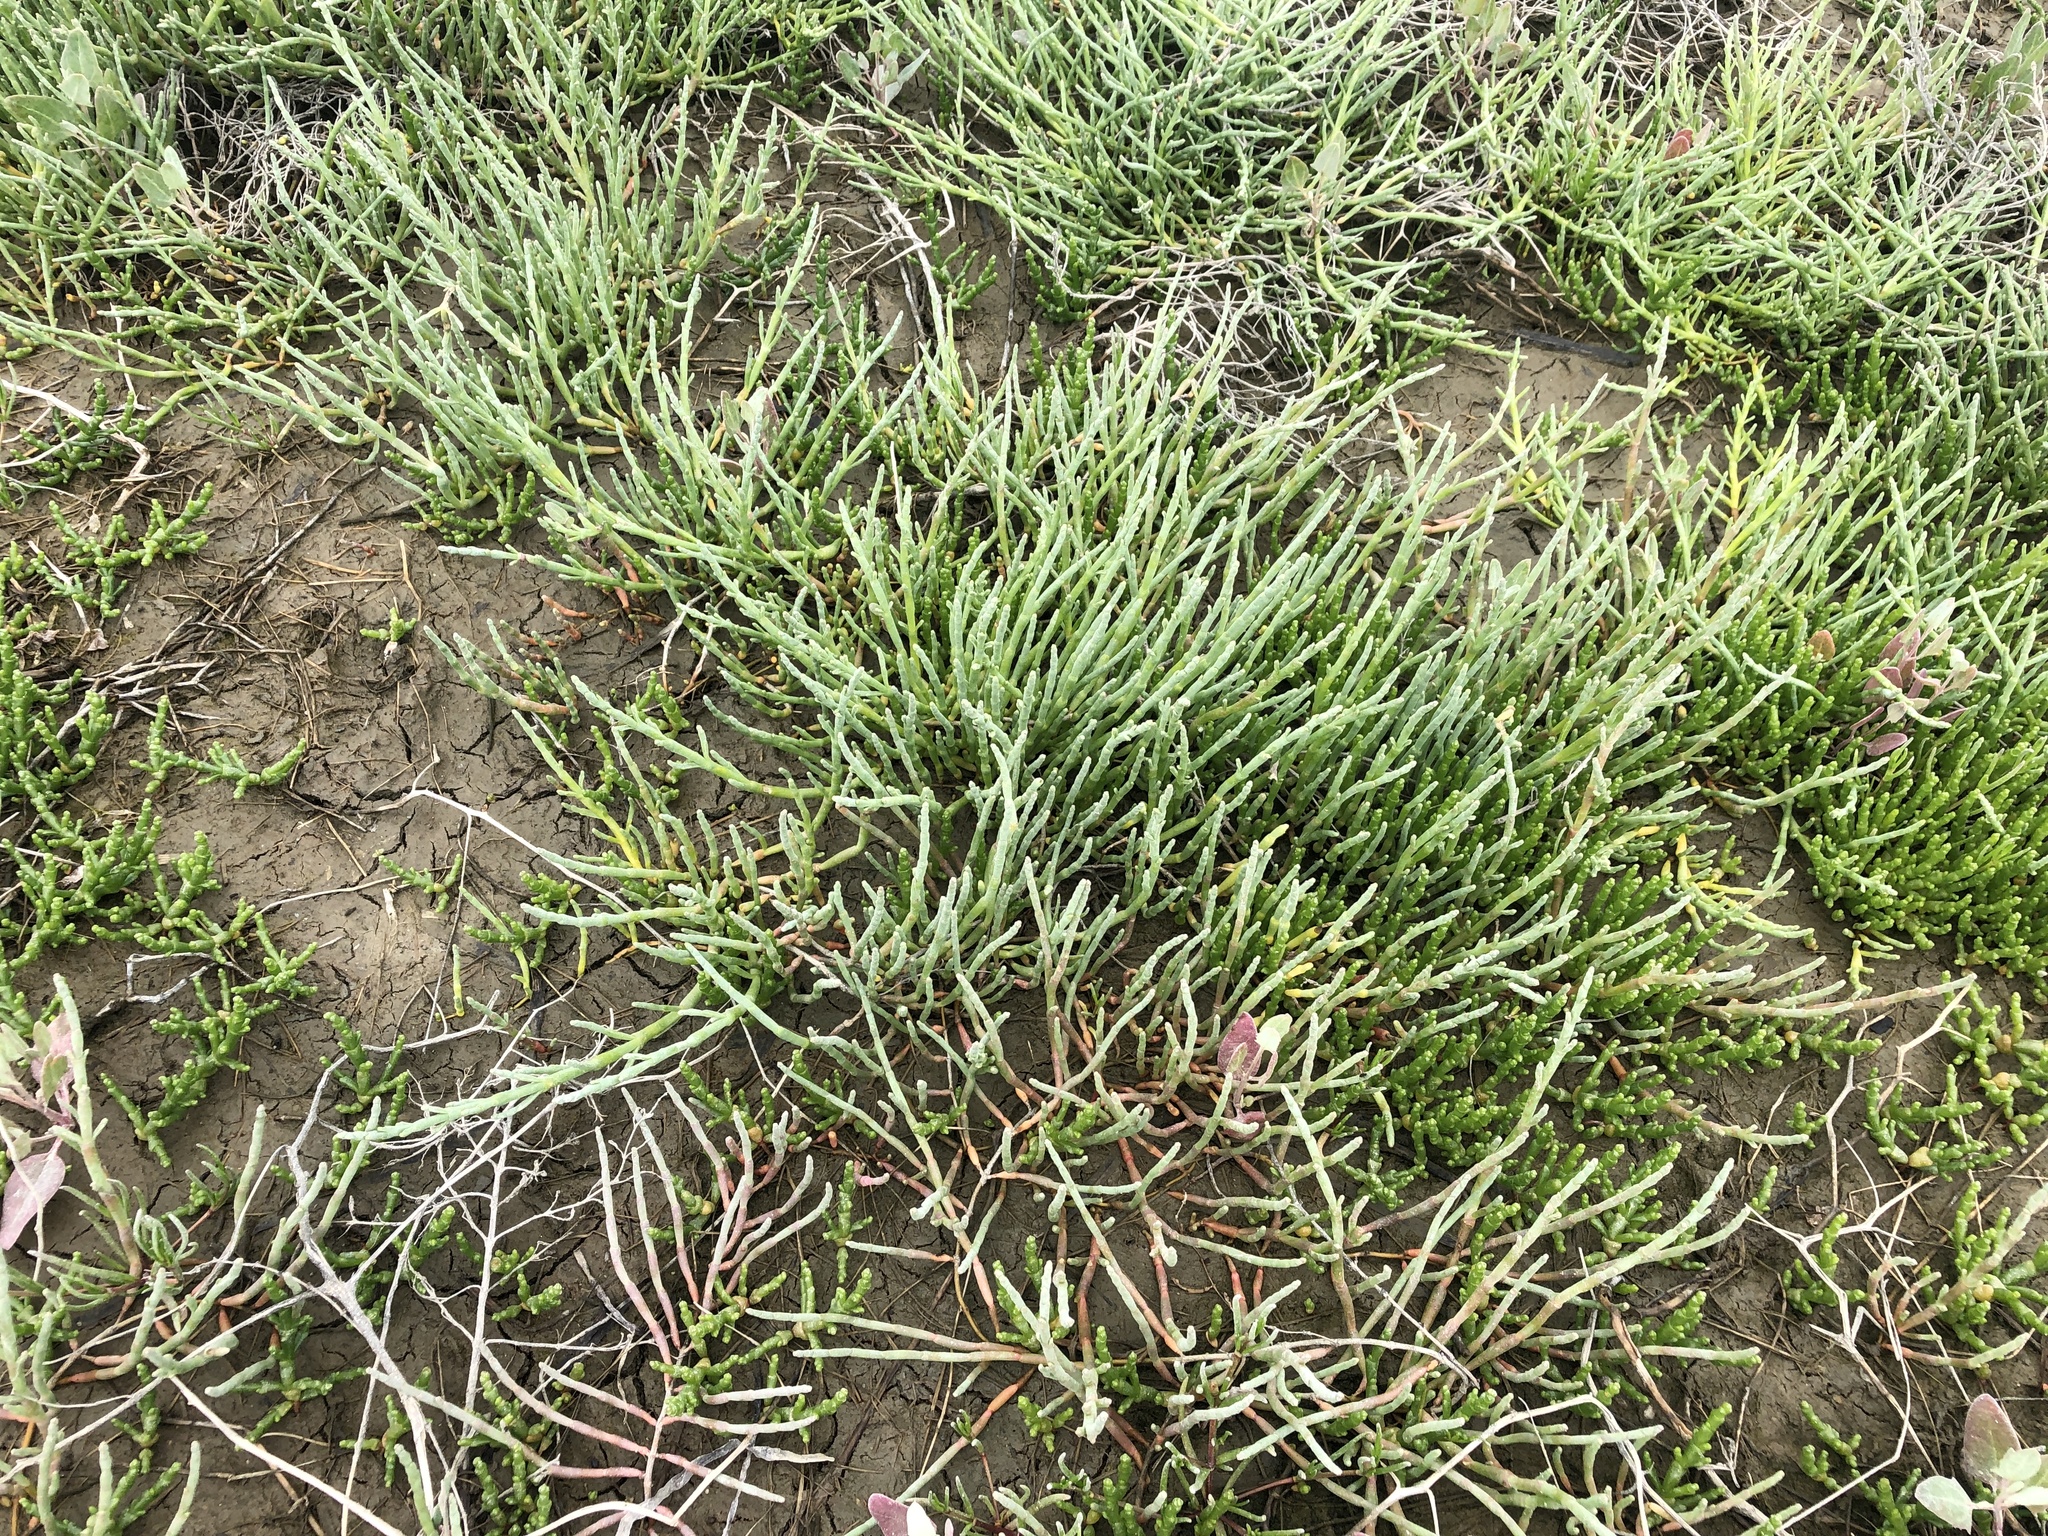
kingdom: Plantae
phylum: Tracheophyta
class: Magnoliopsida
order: Caryophyllales
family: Amaranthaceae
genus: Salicornia
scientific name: Salicornia pacifica
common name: Pacific glasswort
